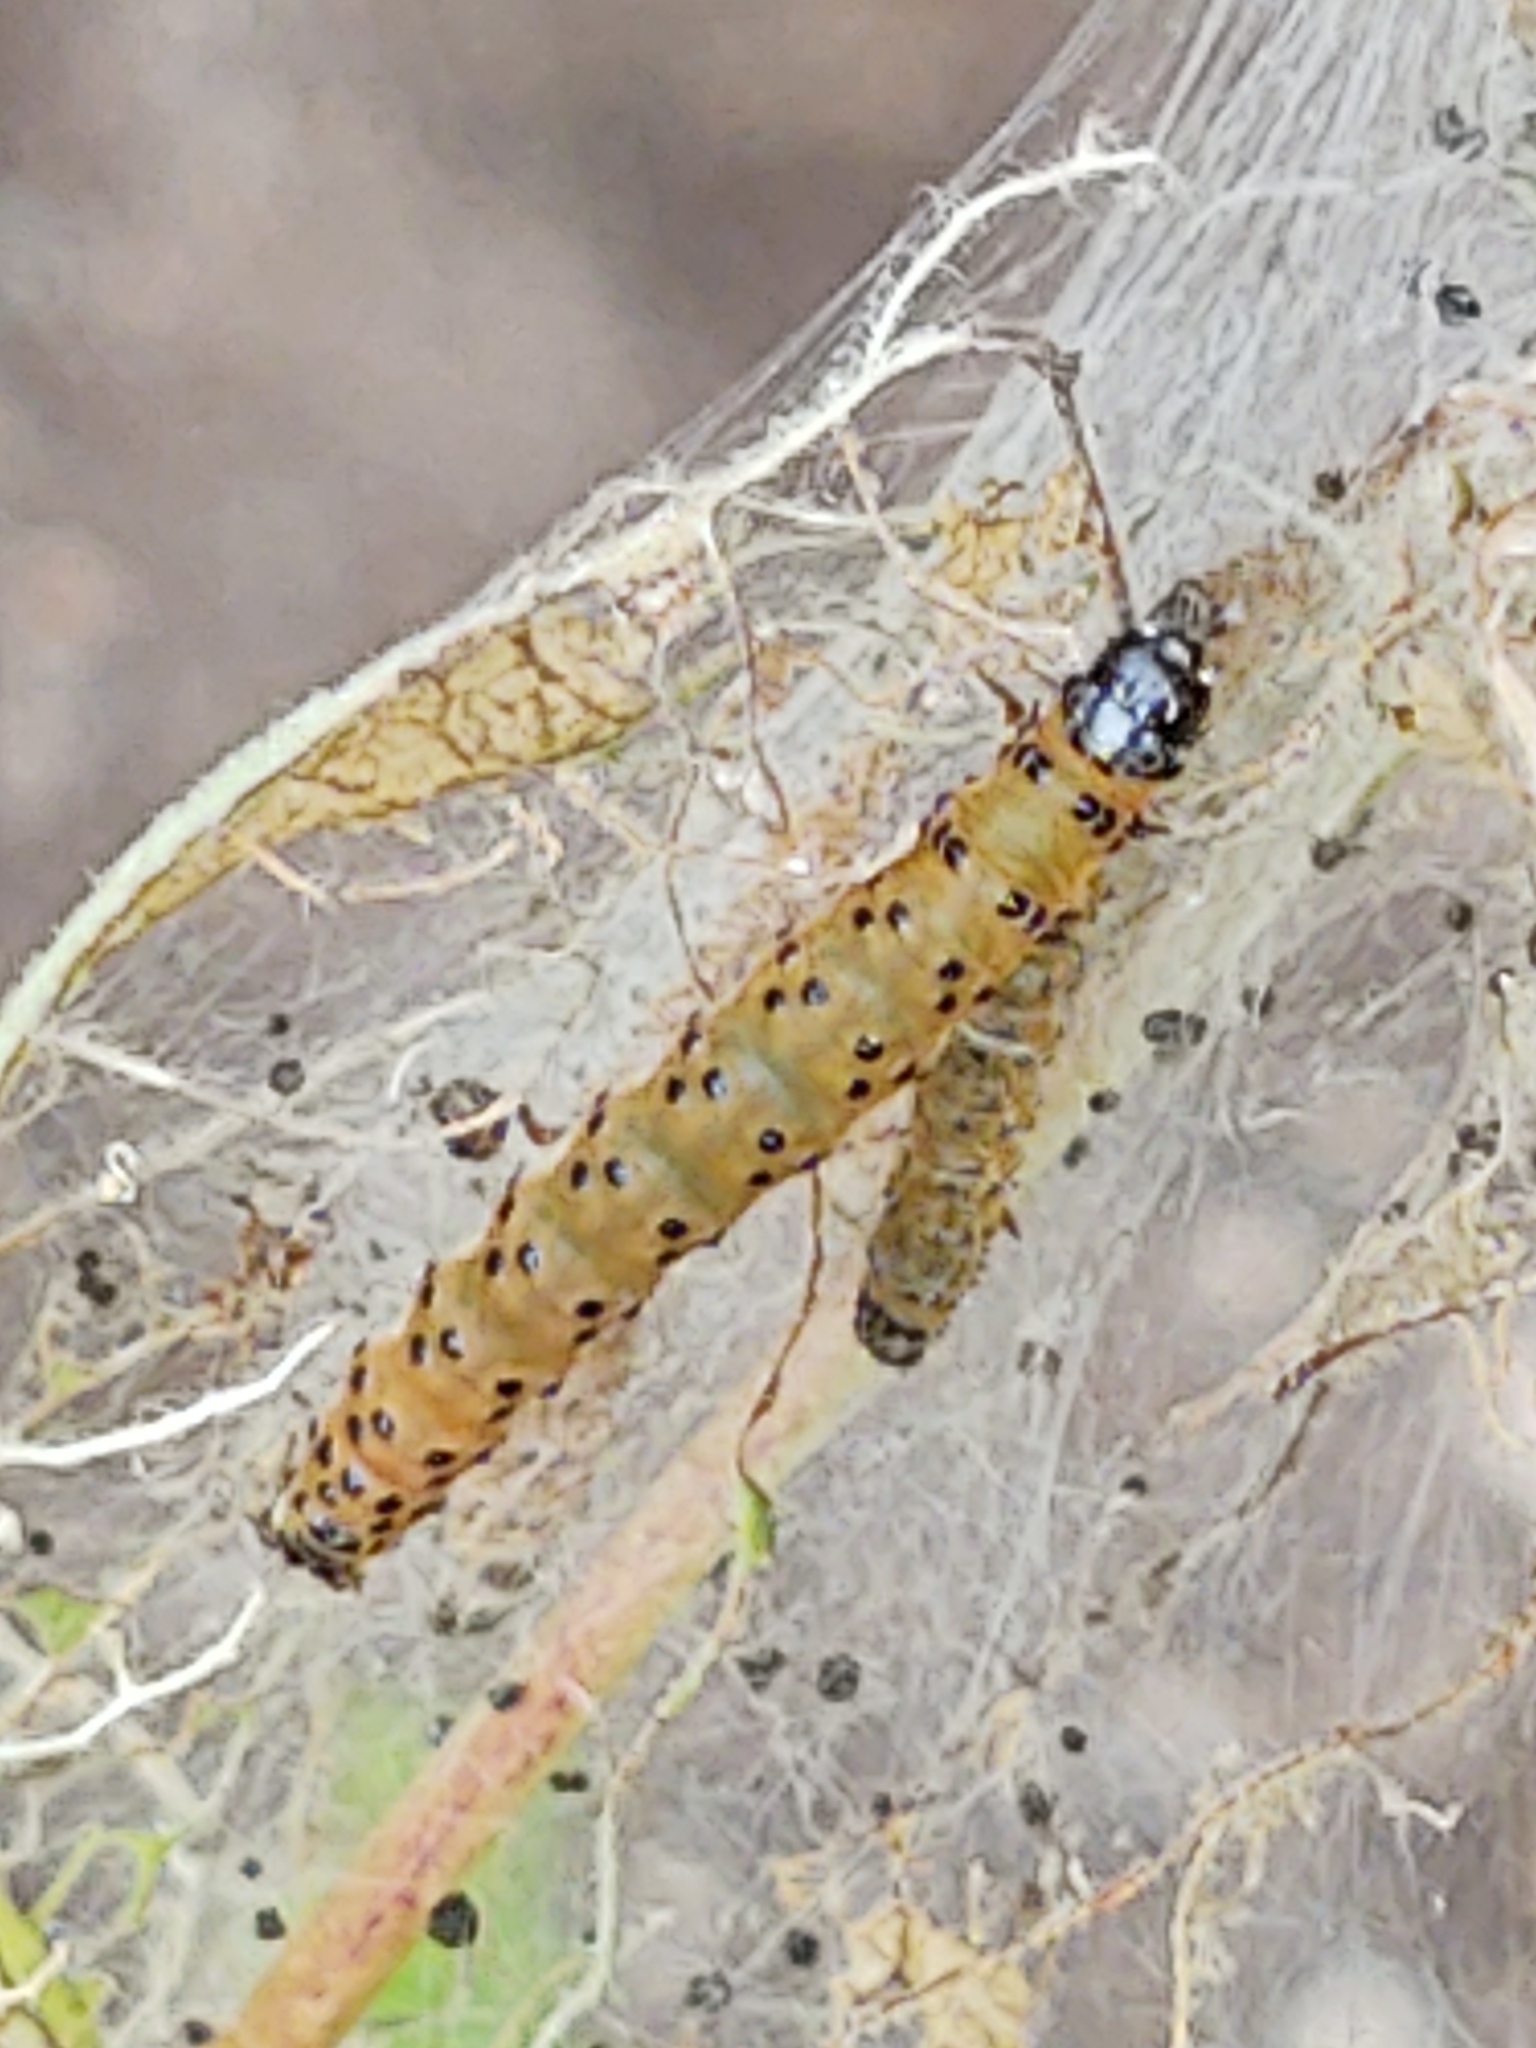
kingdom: Animalia
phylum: Arthropoda
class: Insecta
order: Lepidoptera
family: Crambidae
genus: Saucrobotys
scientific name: Saucrobotys futilalis
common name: Dogbane saucrobotys moth
